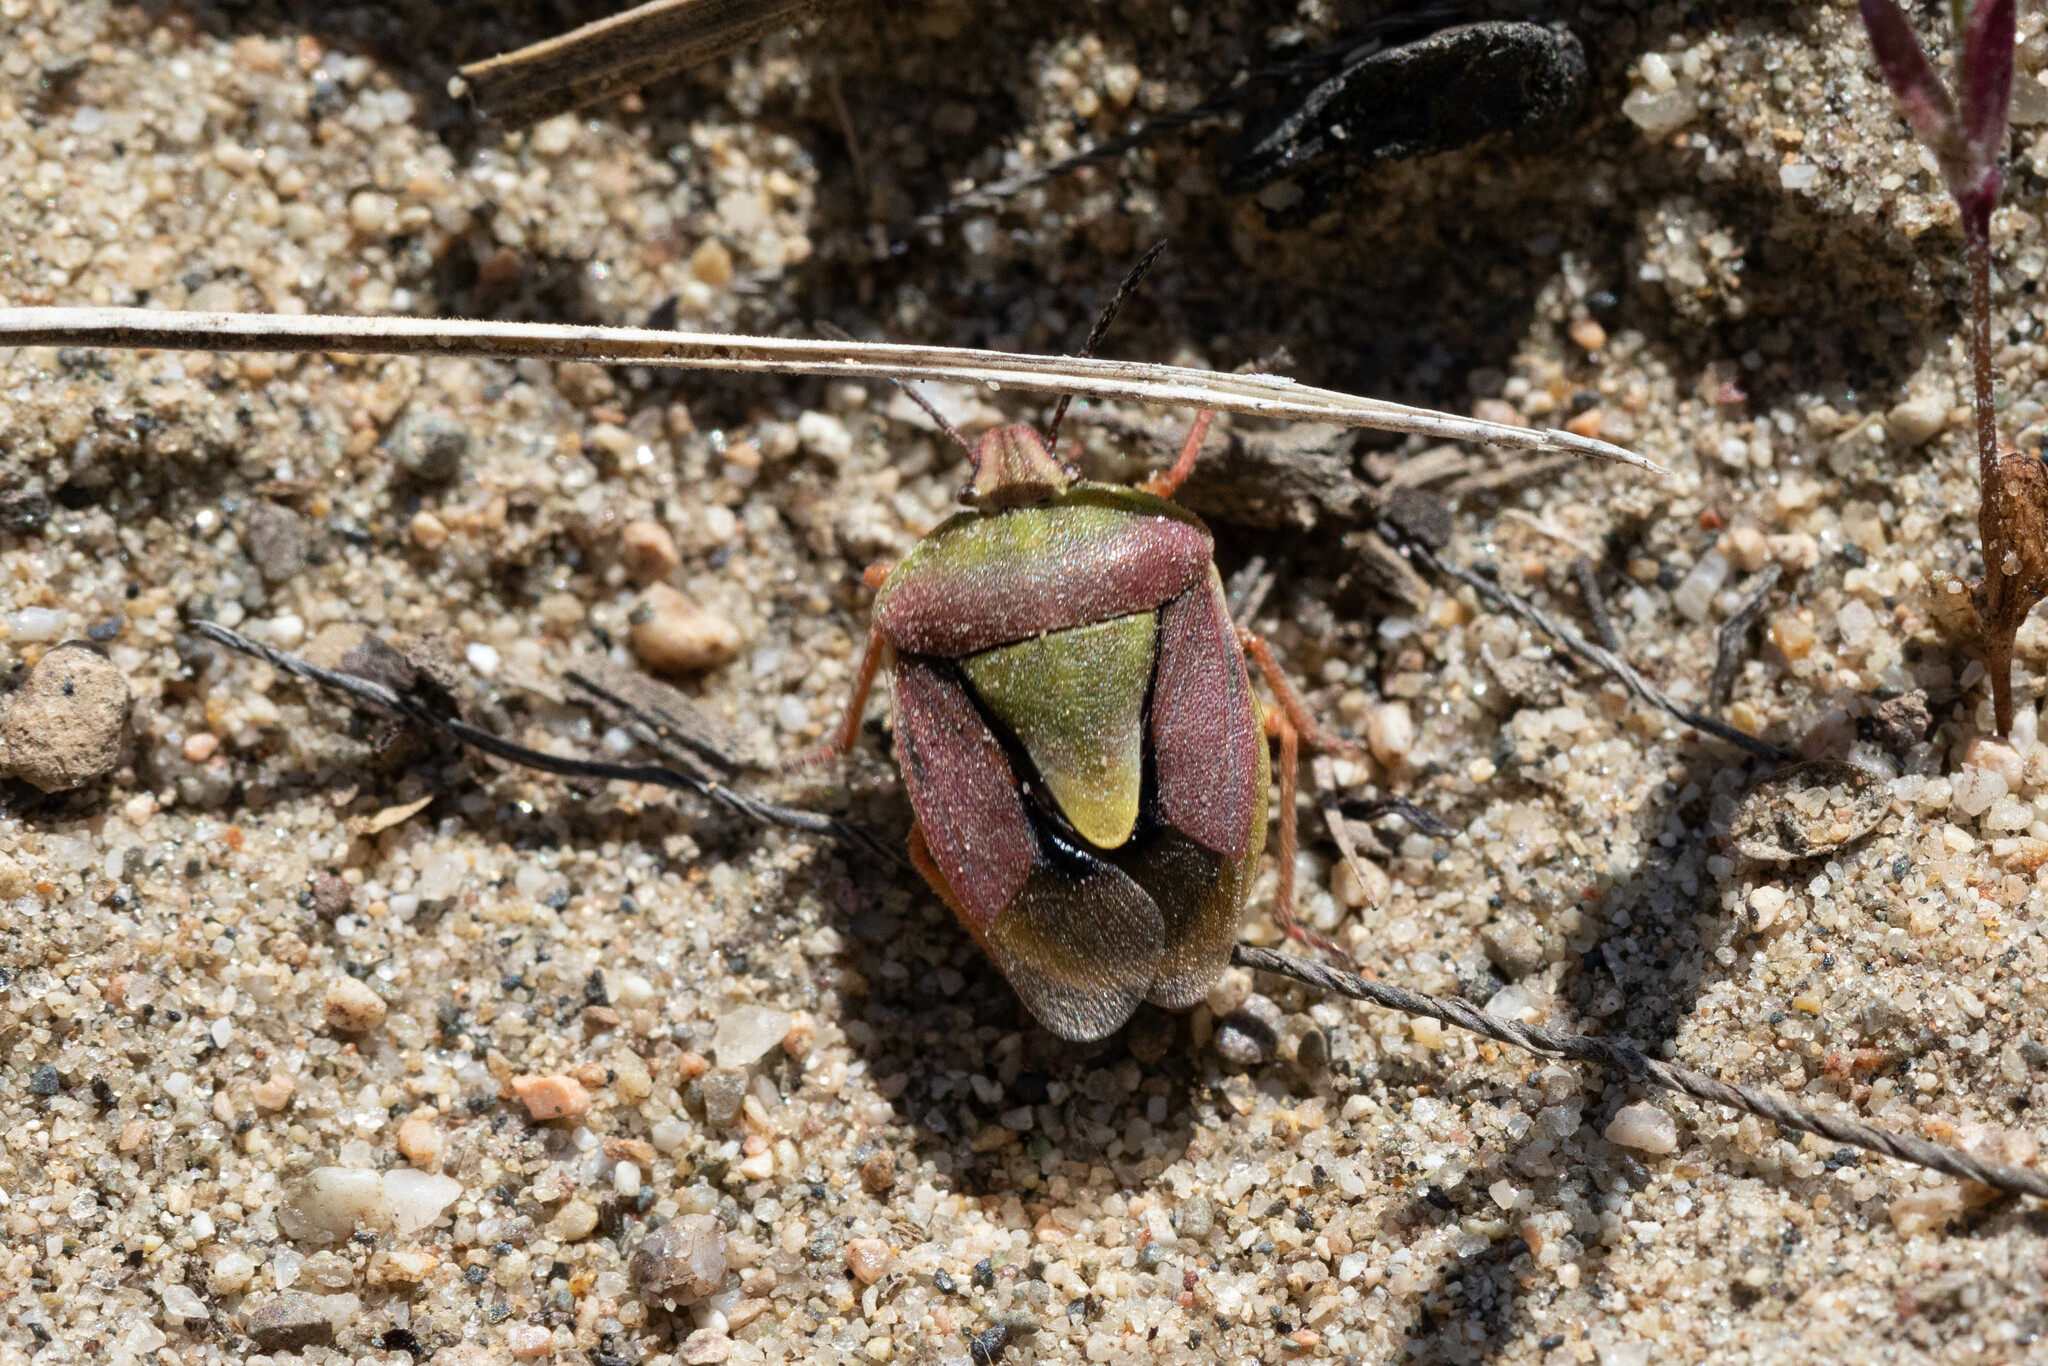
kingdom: Animalia
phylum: Arthropoda
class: Insecta
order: Hemiptera
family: Pentatomidae
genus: Antheminia
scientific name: Antheminia
